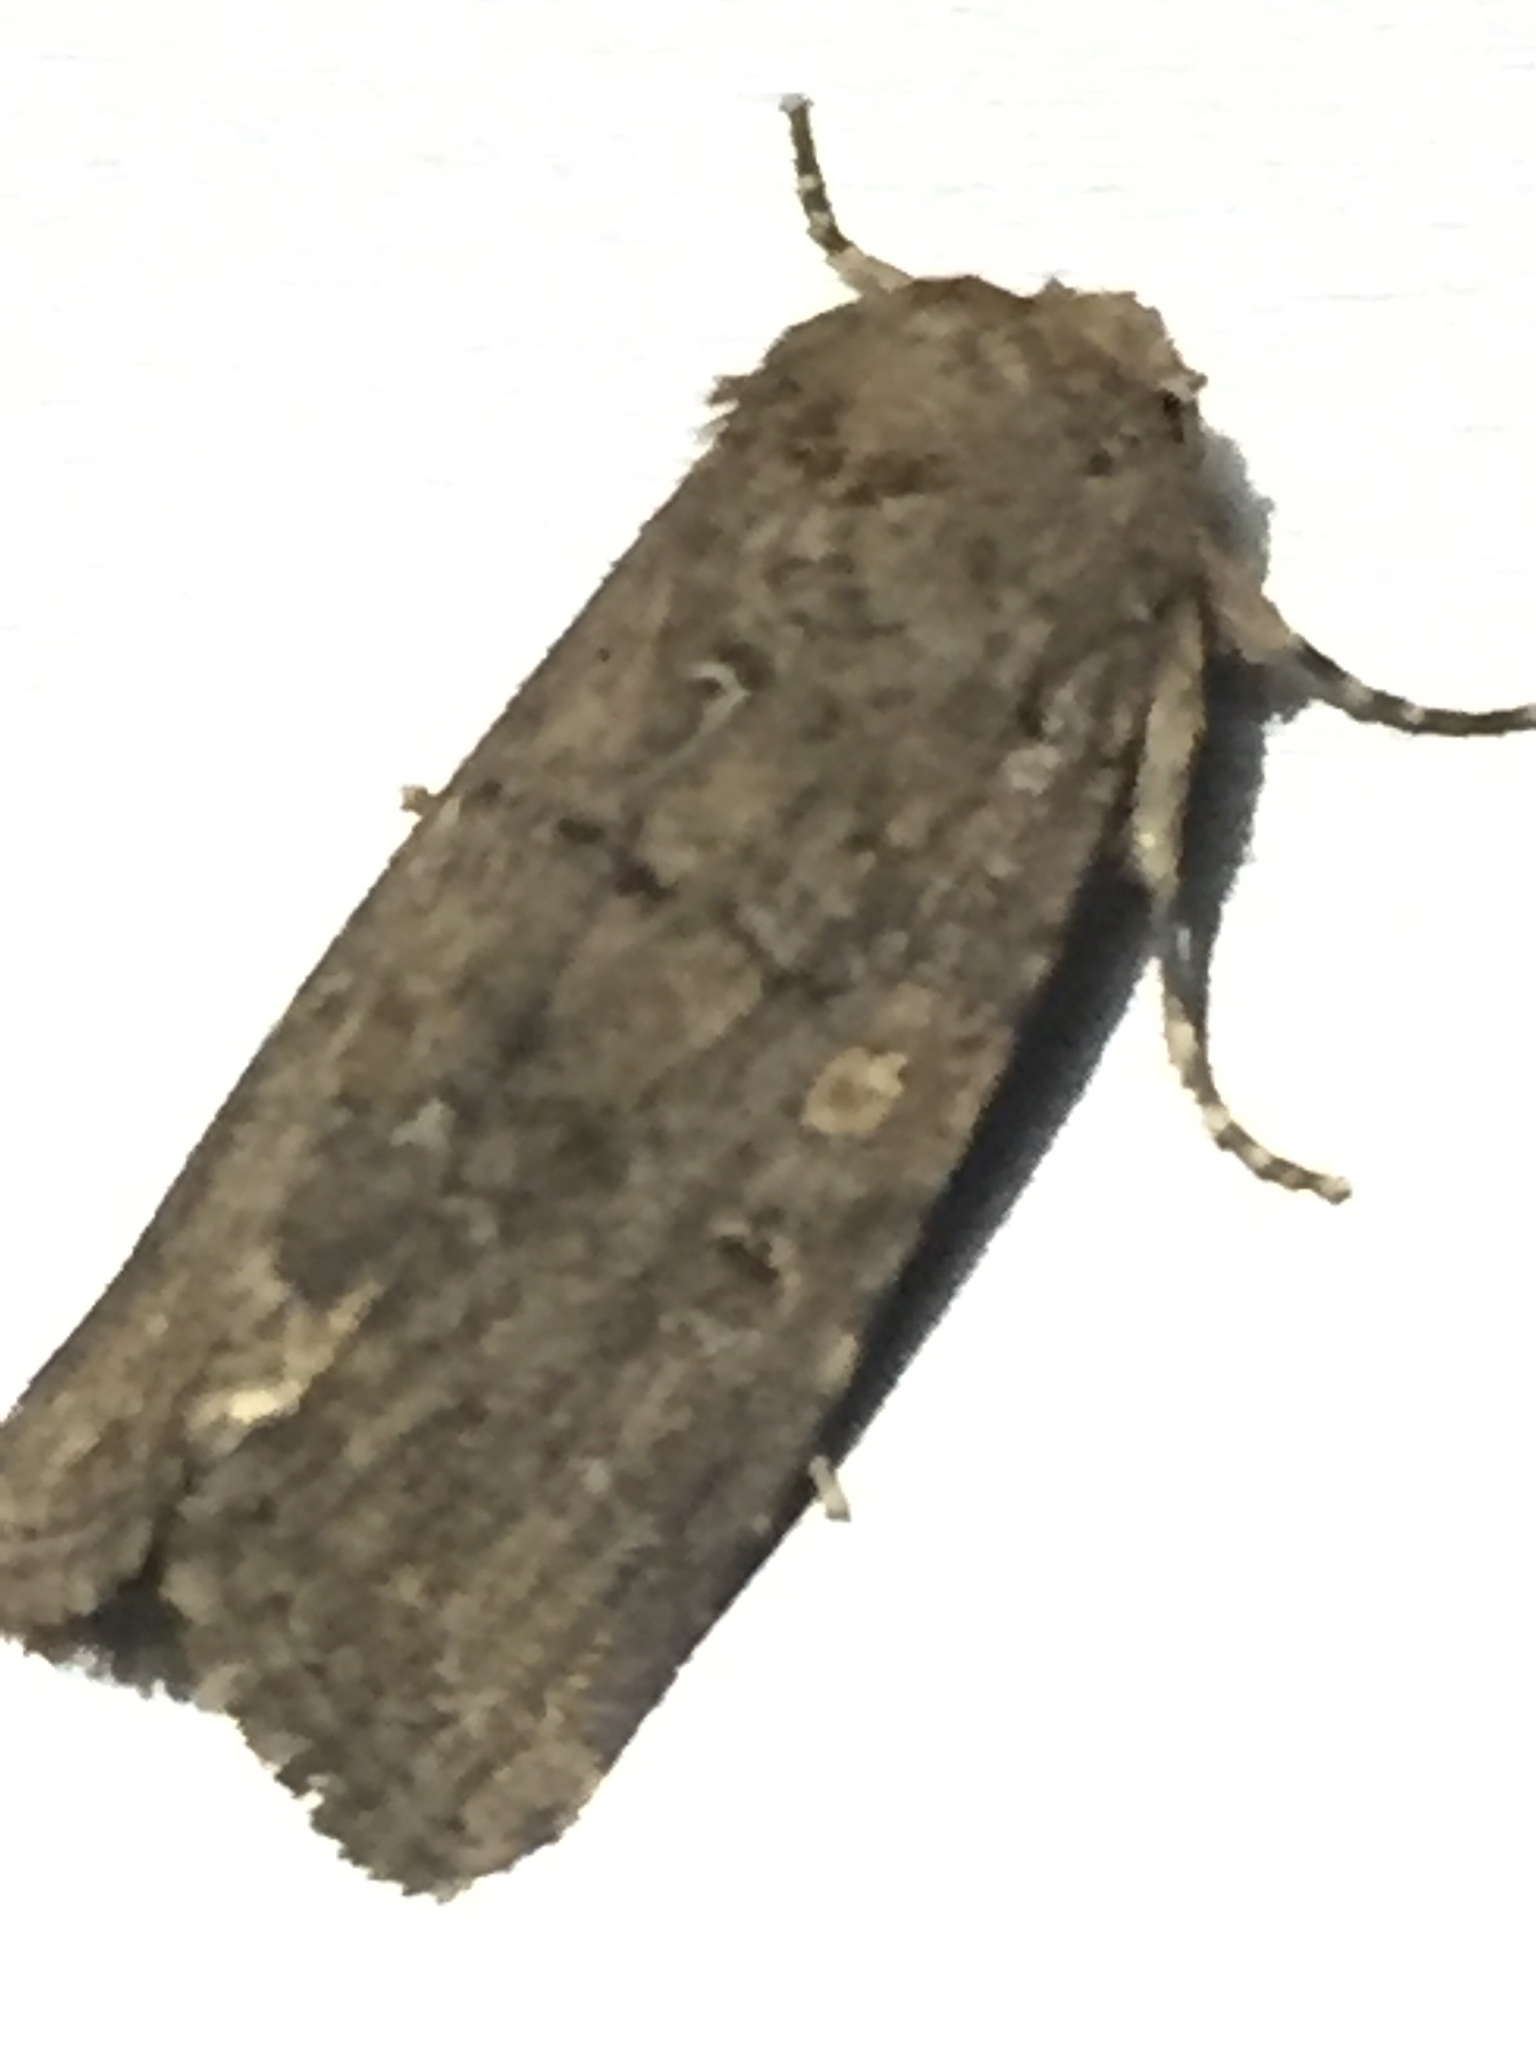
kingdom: Animalia
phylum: Arthropoda
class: Insecta
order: Lepidoptera
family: Noctuidae
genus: Klugeana
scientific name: Klugeana philoxalis
